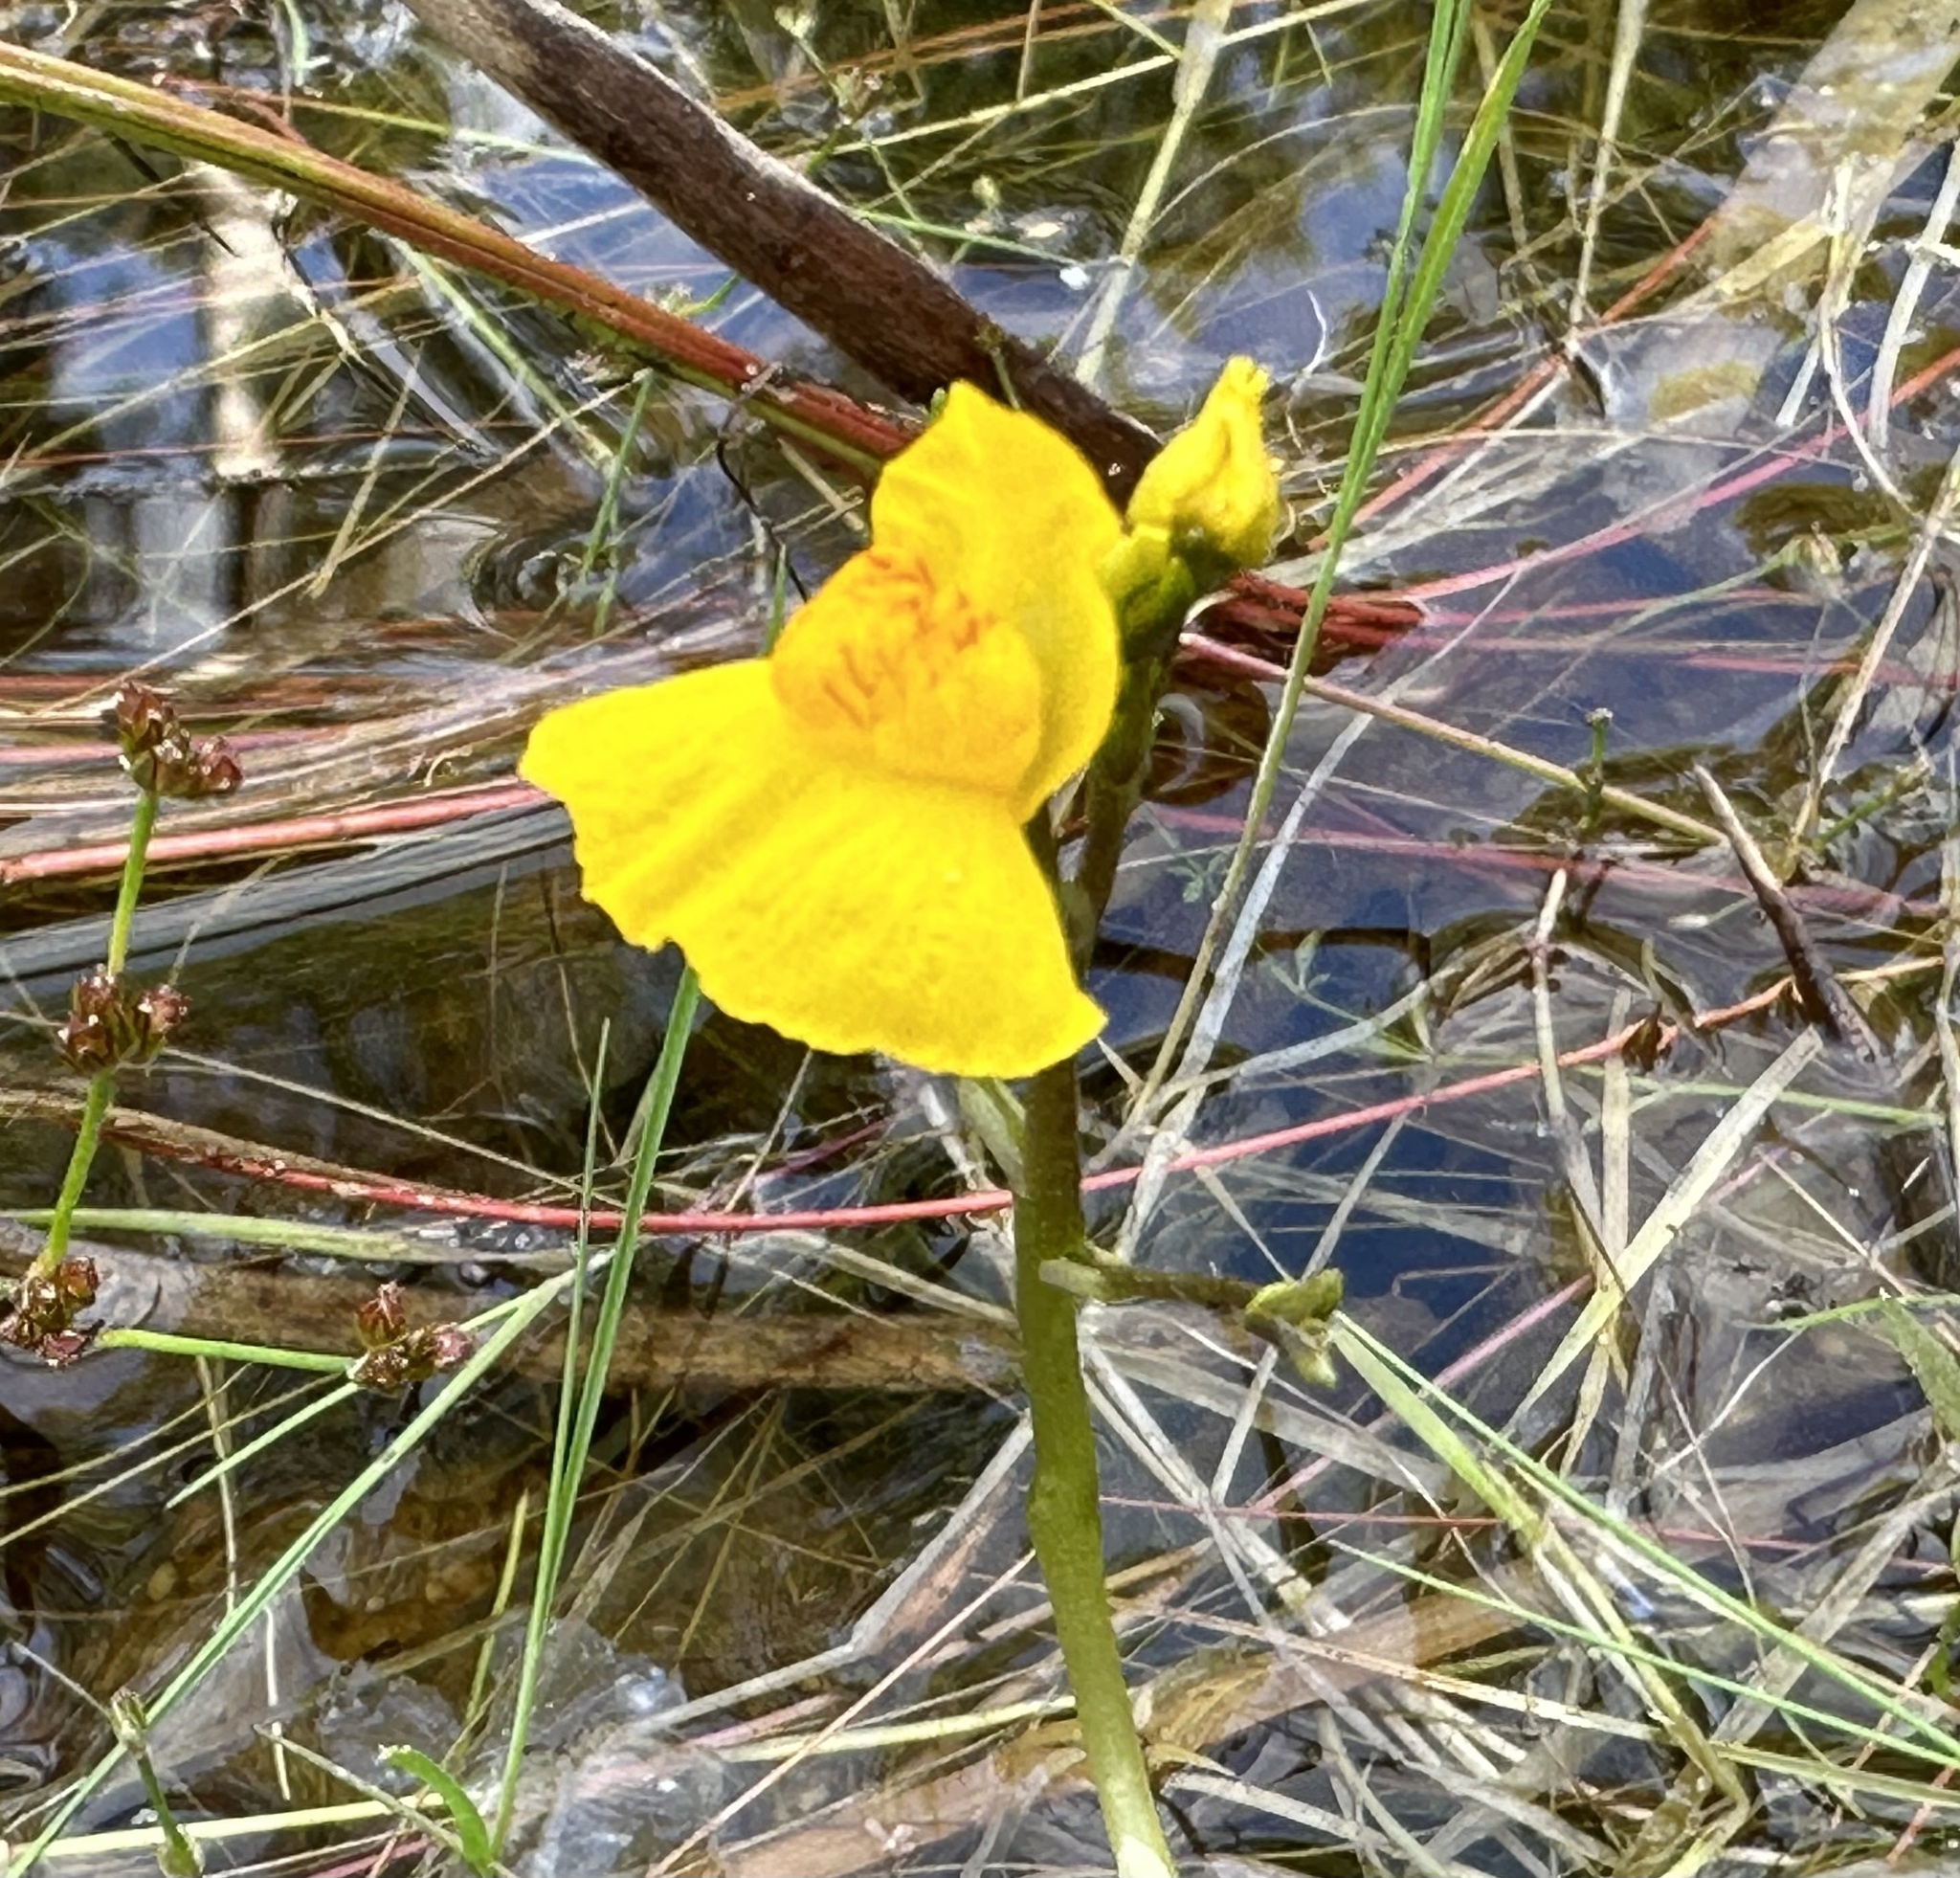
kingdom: Plantae
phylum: Tracheophyta
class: Magnoliopsida
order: Lamiales
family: Lentibulariaceae
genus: Utricularia
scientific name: Utricularia australis
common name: Bladderwort
